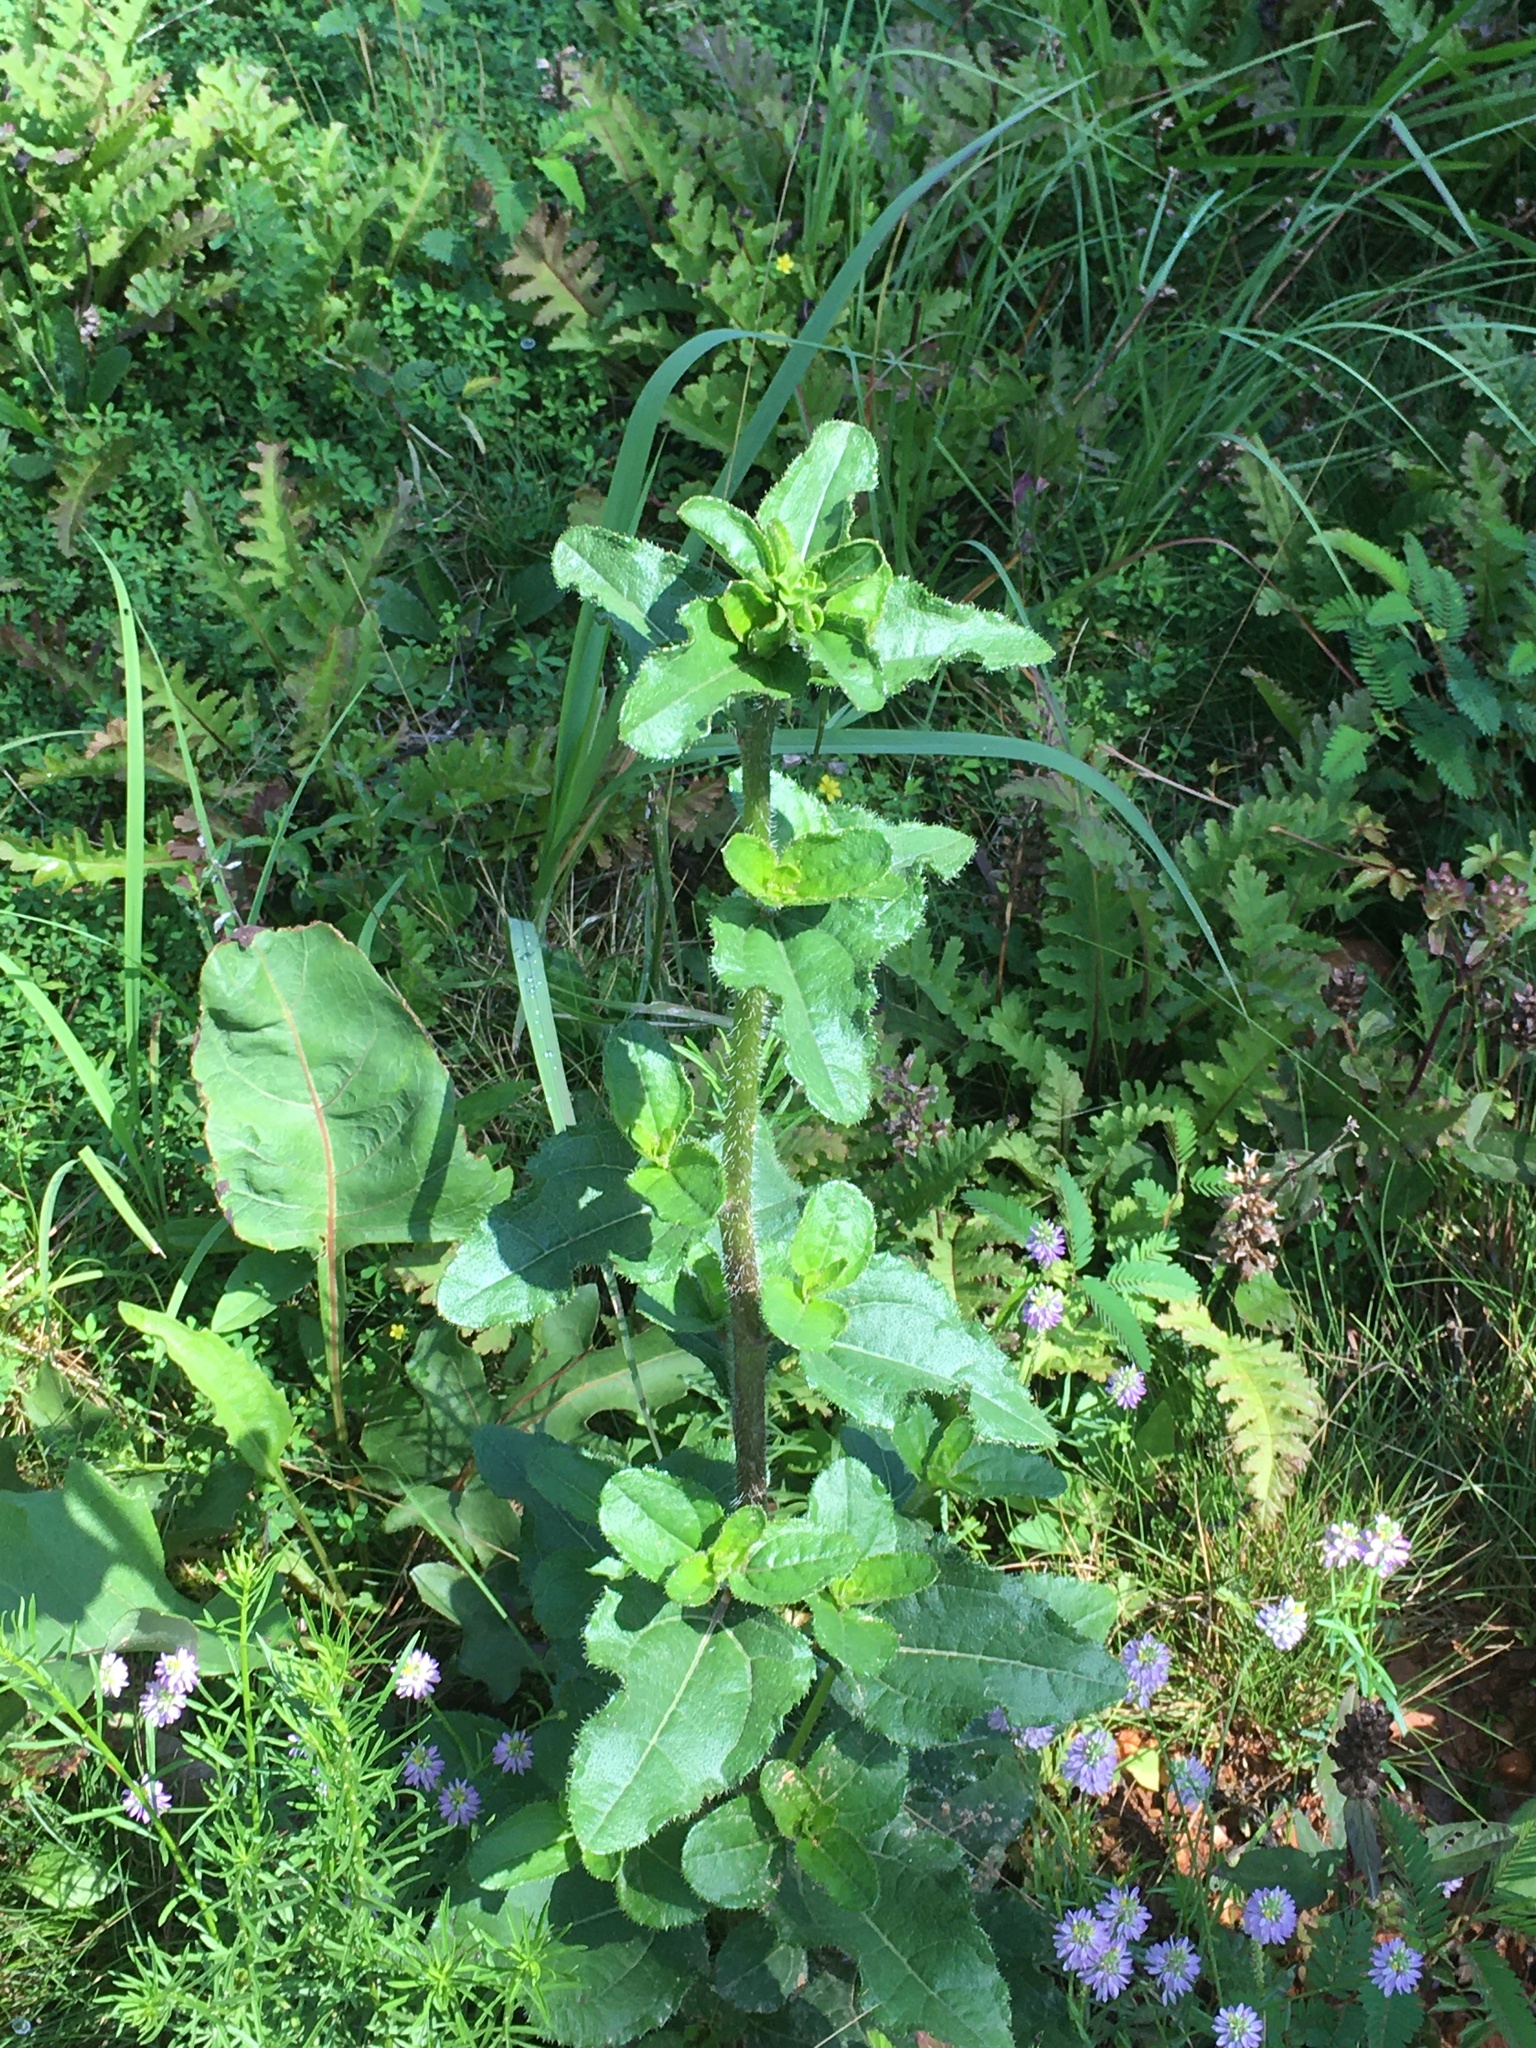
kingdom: Plantae
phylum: Tracheophyta
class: Magnoliopsida
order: Asterales
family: Asteraceae
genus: Helianthus
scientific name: Helianthus atrorubens
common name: Dark-eyed sunflower
